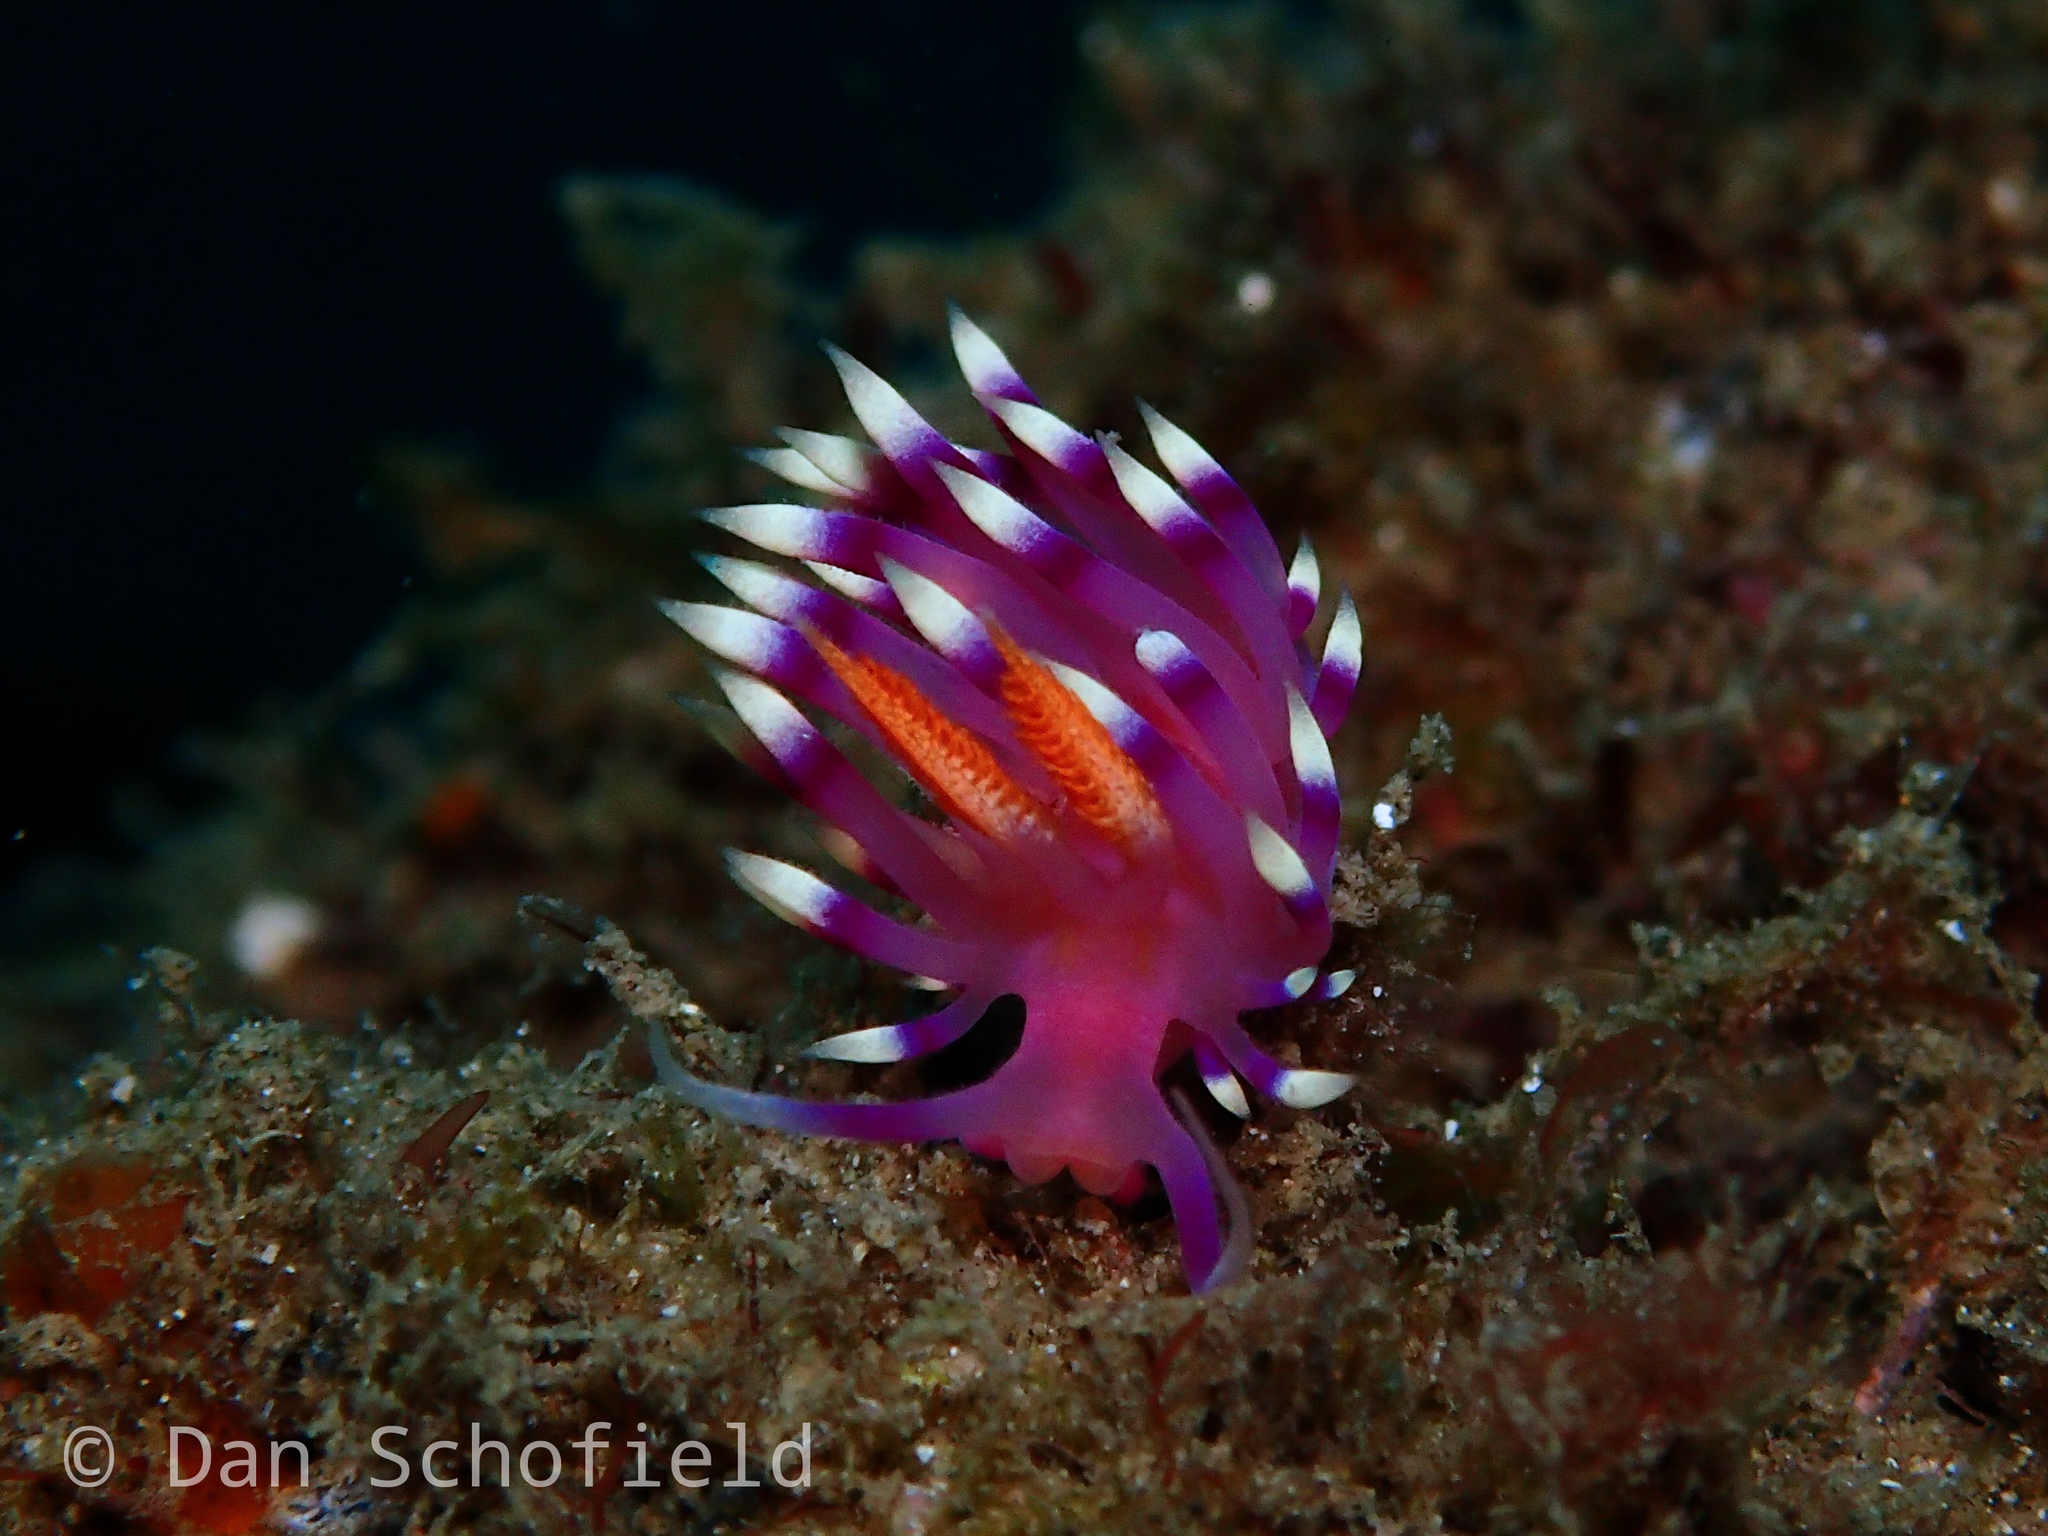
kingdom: Animalia
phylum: Mollusca
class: Gastropoda
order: Nudibranchia
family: Flabellinidae
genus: Coryphellina
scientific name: Coryphellina exoptata
